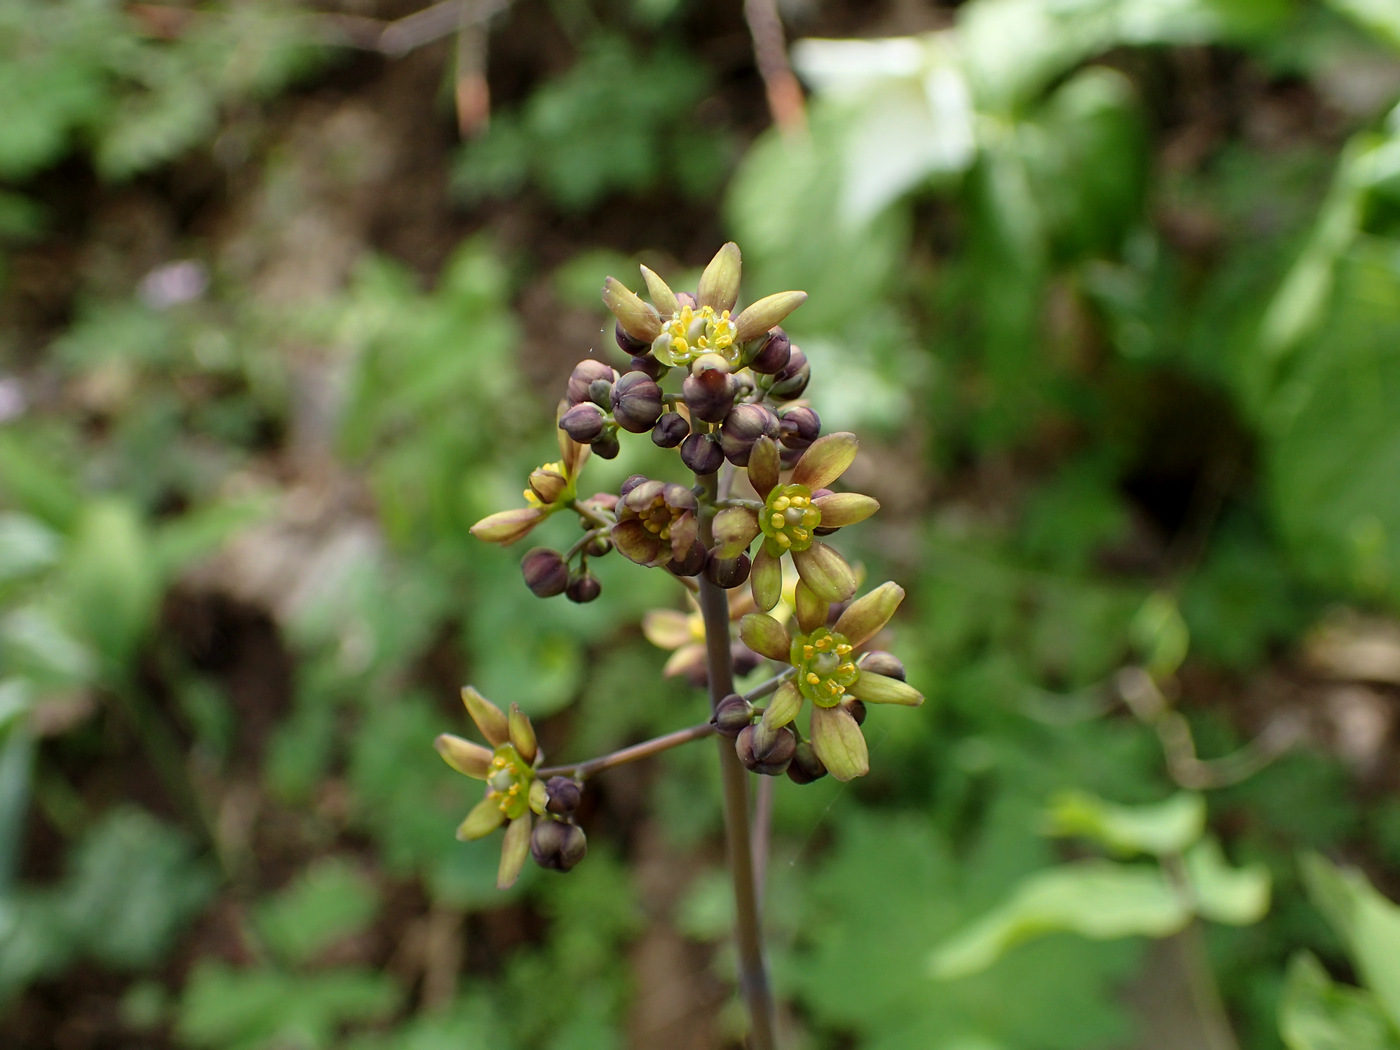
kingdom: Plantae
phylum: Tracheophyta
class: Magnoliopsida
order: Ranunculales
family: Berberidaceae
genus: Caulophyllum
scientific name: Caulophyllum thalictroides
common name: Blue cohosh
